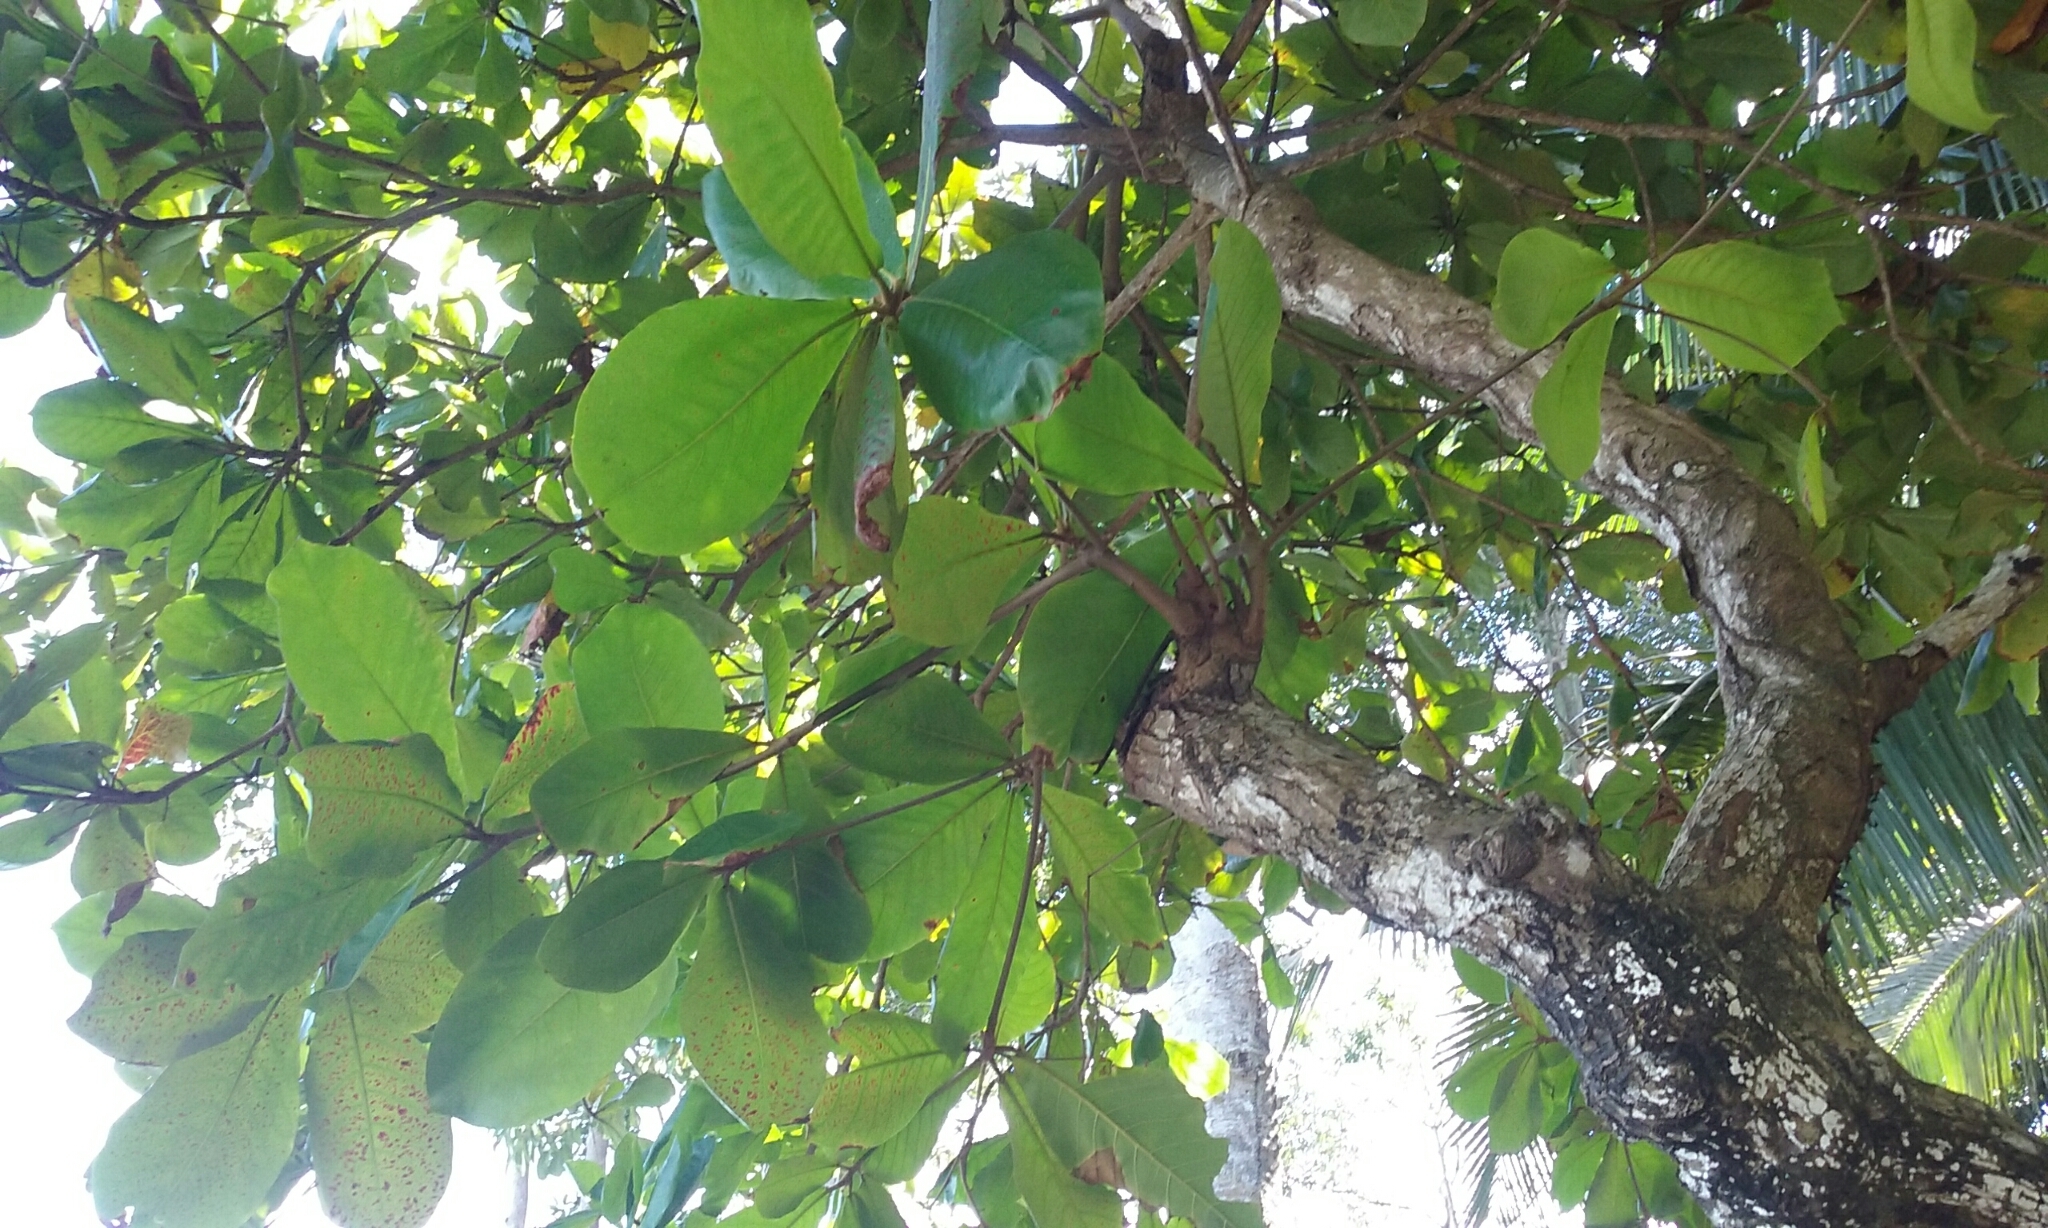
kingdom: Plantae
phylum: Tracheophyta
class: Magnoliopsida
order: Myrtales
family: Combretaceae
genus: Terminalia
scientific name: Terminalia catappa
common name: Tropical almond
